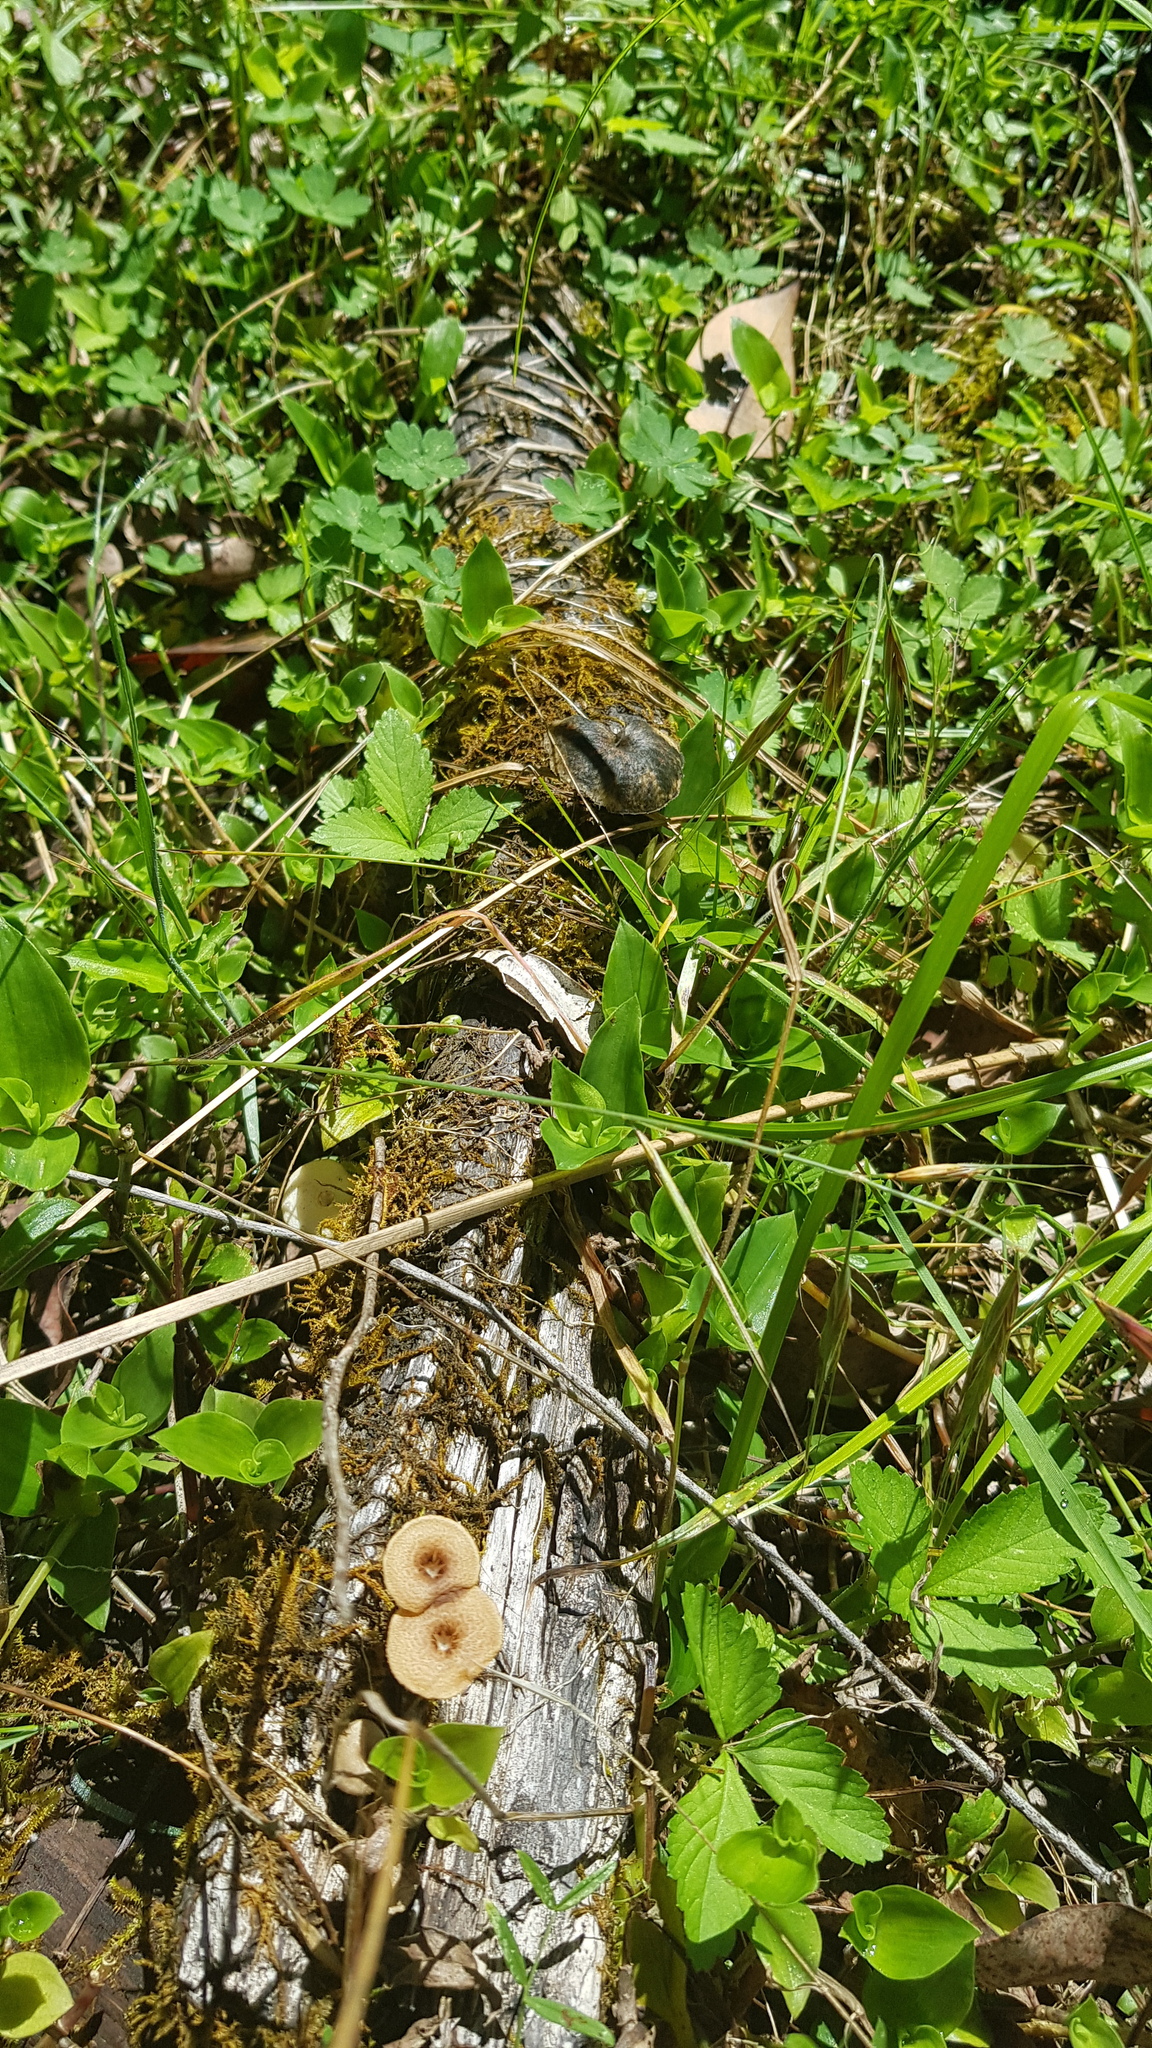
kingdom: Fungi
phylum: Basidiomycota
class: Agaricomycetes
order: Polyporales
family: Polyporaceae
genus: Lentinus
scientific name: Lentinus arcularius
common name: Spring polypore
